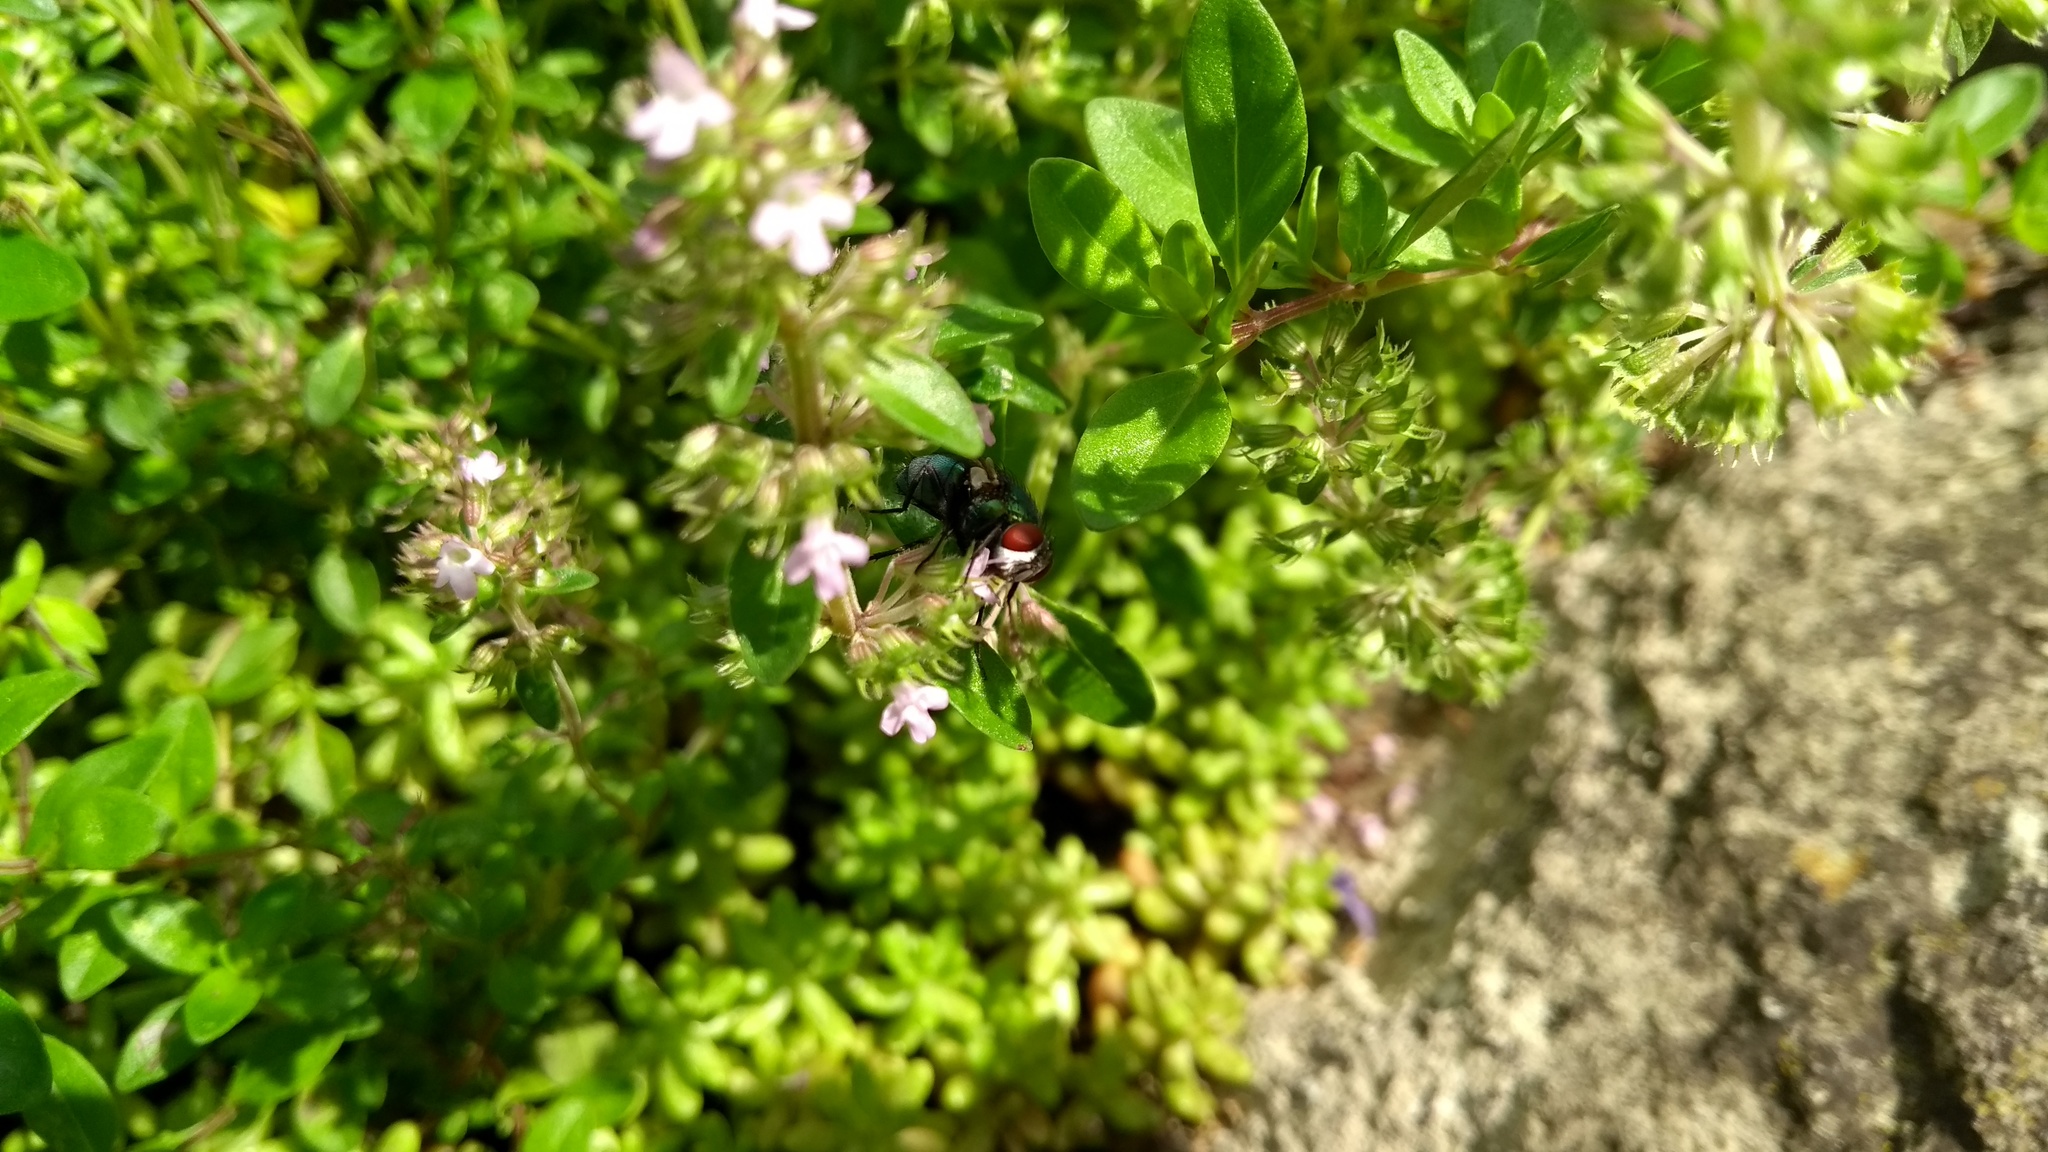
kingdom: Animalia
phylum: Arthropoda
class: Insecta
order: Diptera
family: Calliphoridae
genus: Lucilia
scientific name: Lucilia
